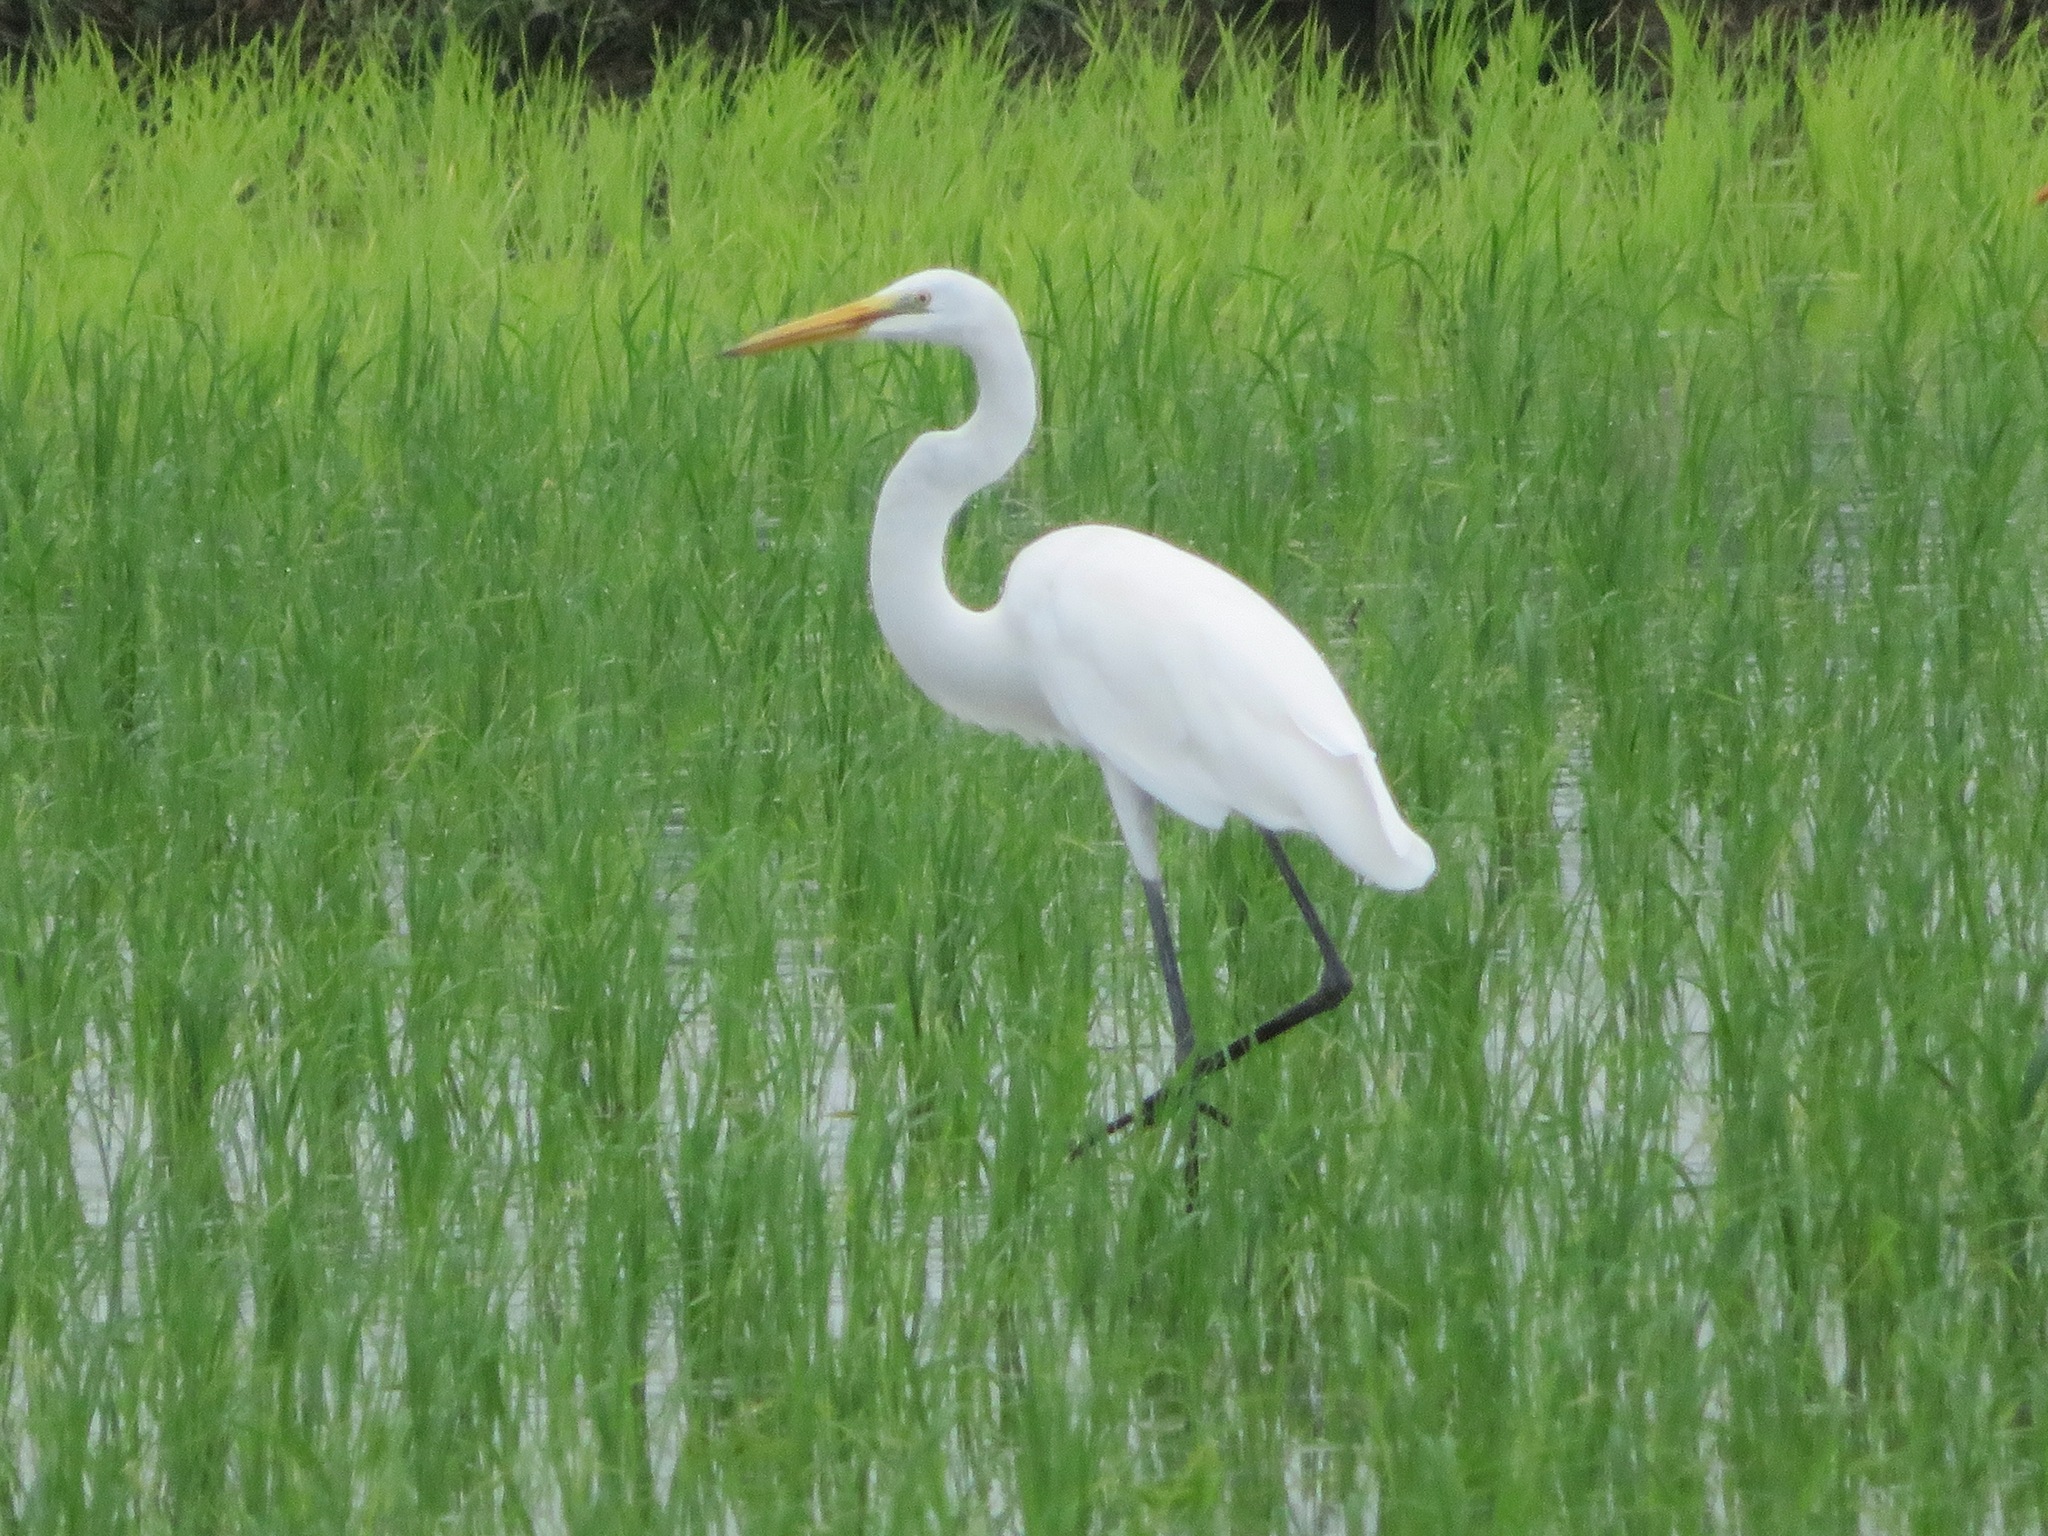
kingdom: Animalia
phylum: Chordata
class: Aves
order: Pelecaniformes
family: Ardeidae
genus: Ardea
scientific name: Ardea alba
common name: Great egret
